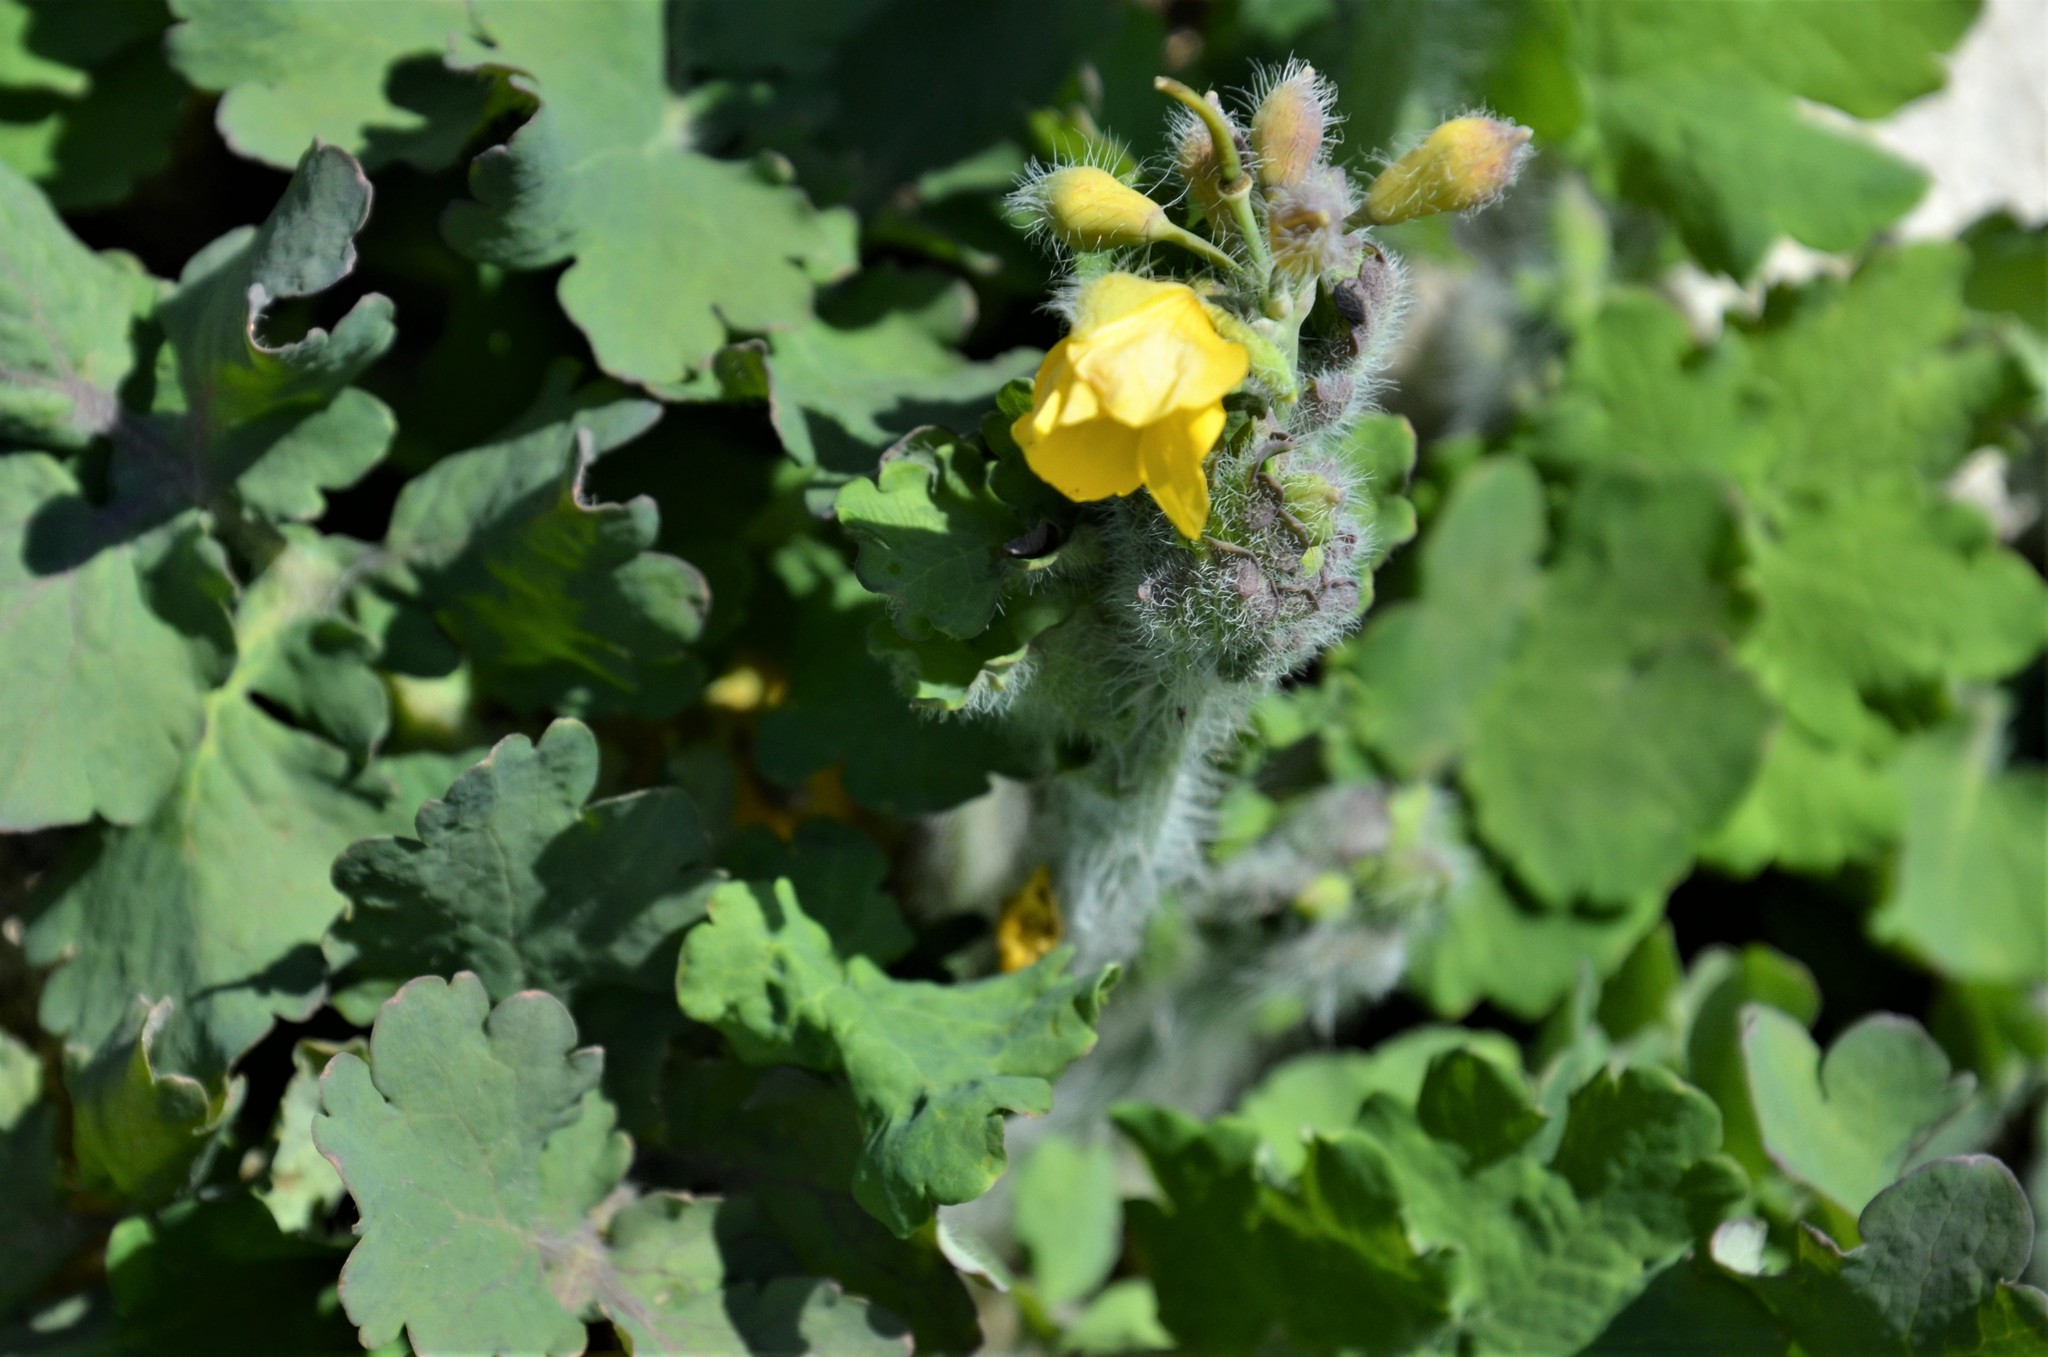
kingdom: Plantae
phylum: Tracheophyta
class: Magnoliopsida
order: Ranunculales
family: Papaveraceae
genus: Chelidonium
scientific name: Chelidonium majus
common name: Greater celandine
